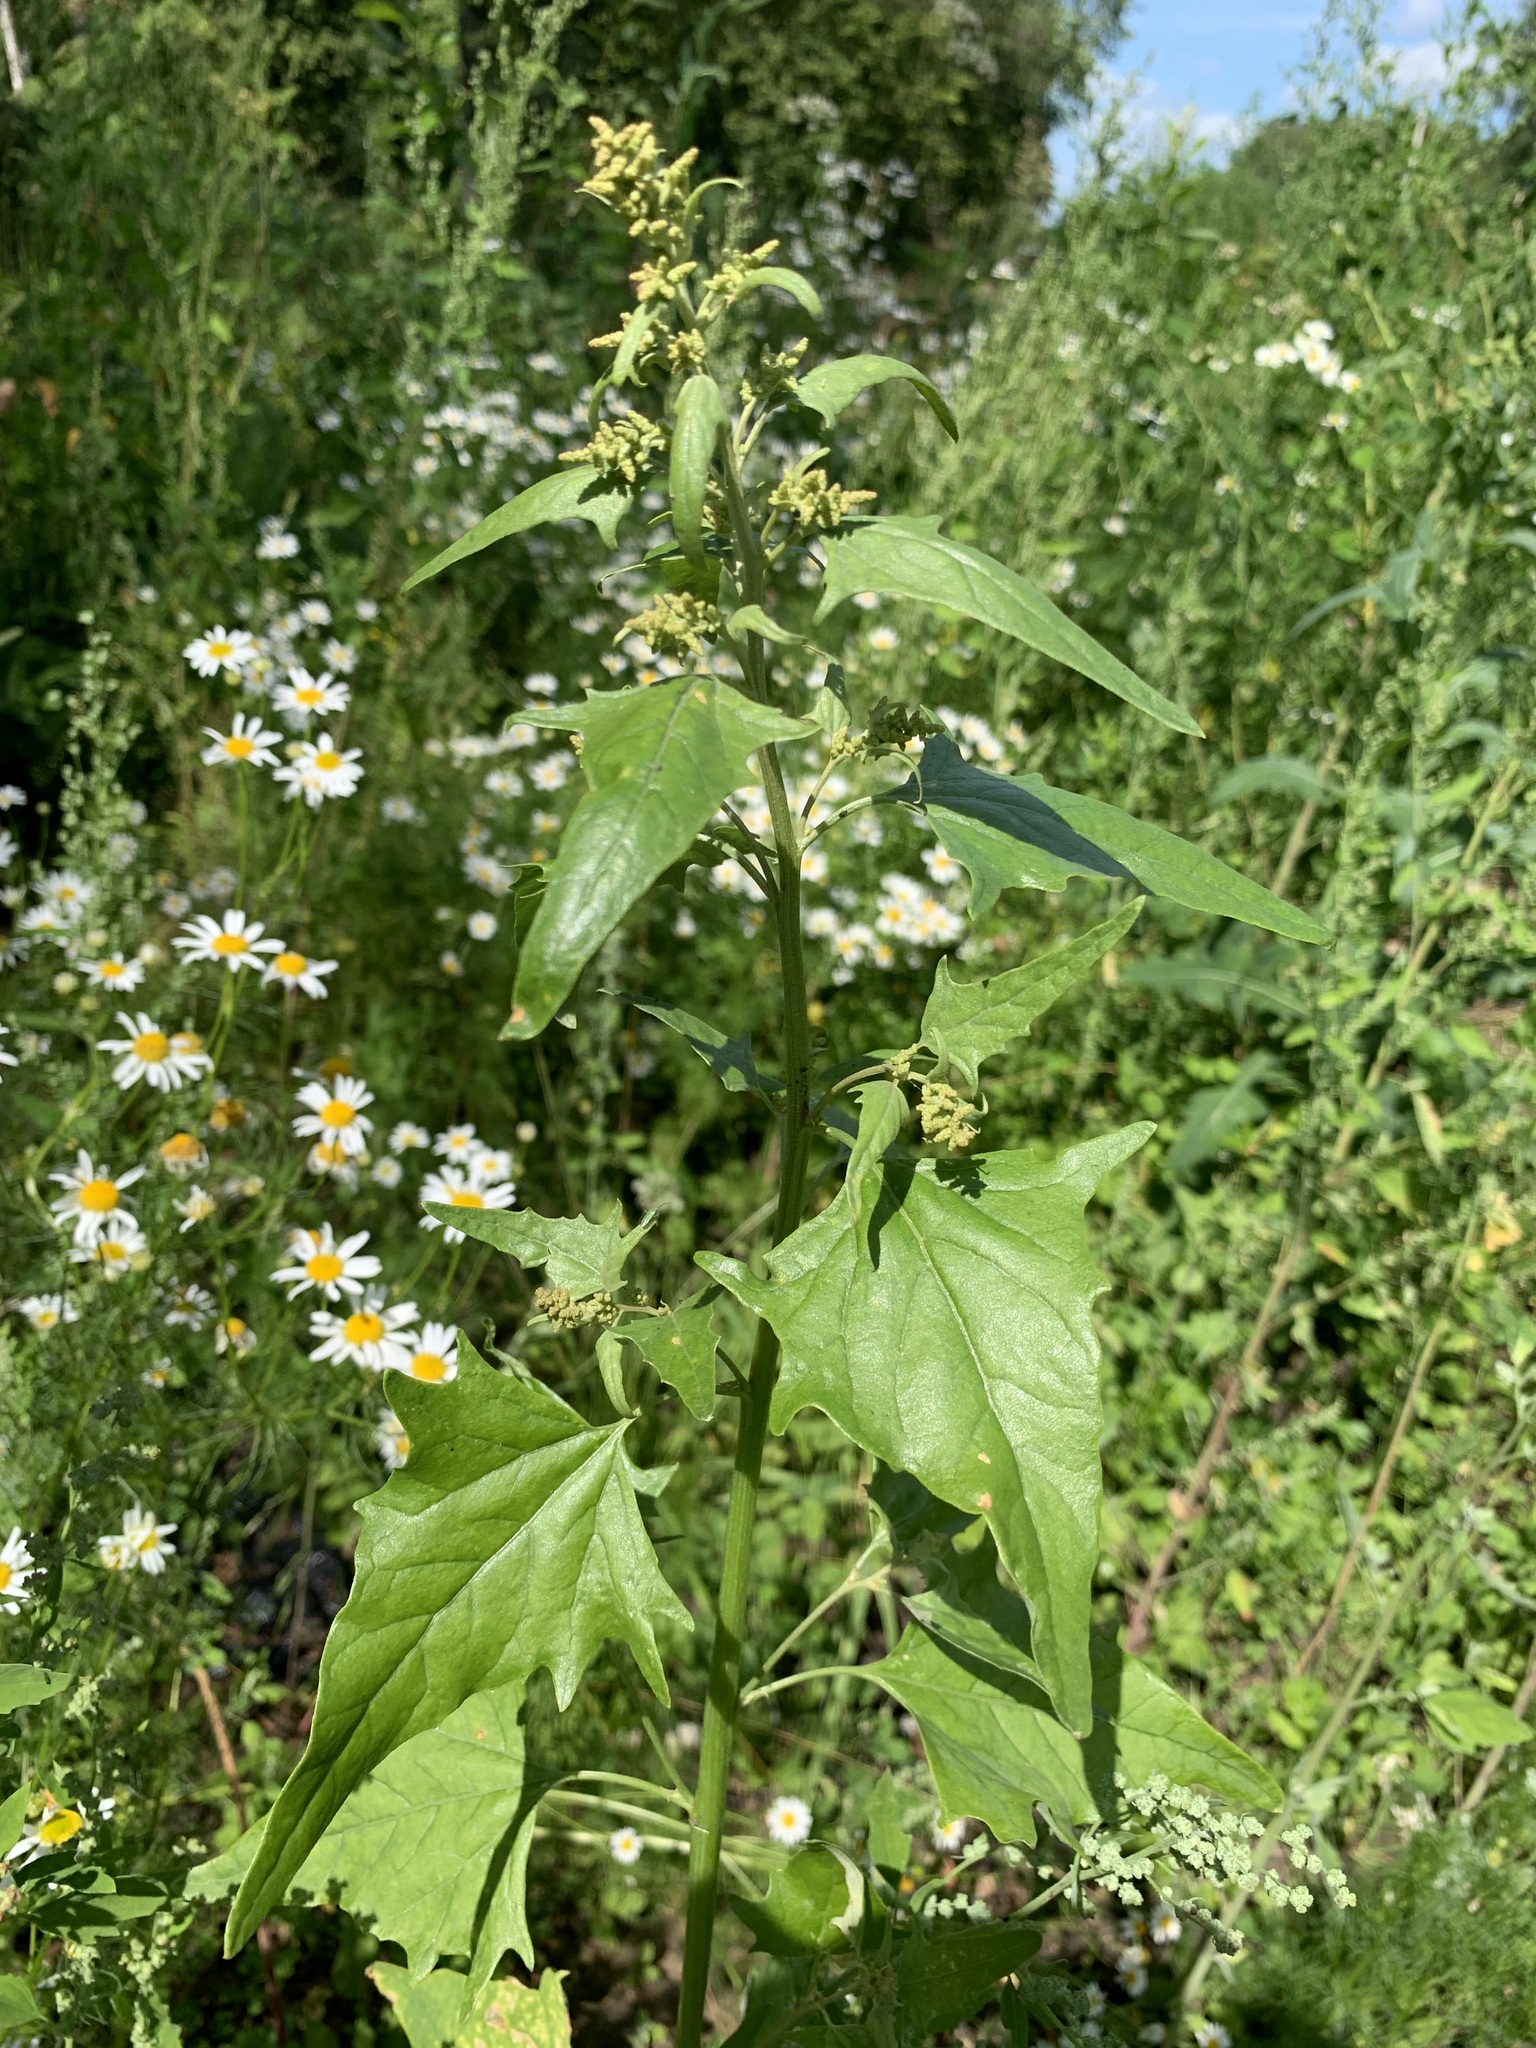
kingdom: Plantae
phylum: Tracheophyta
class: Magnoliopsida
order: Caryophyllales
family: Amaranthaceae
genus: Atriplex
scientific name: Atriplex sagittata
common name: Purple orache
